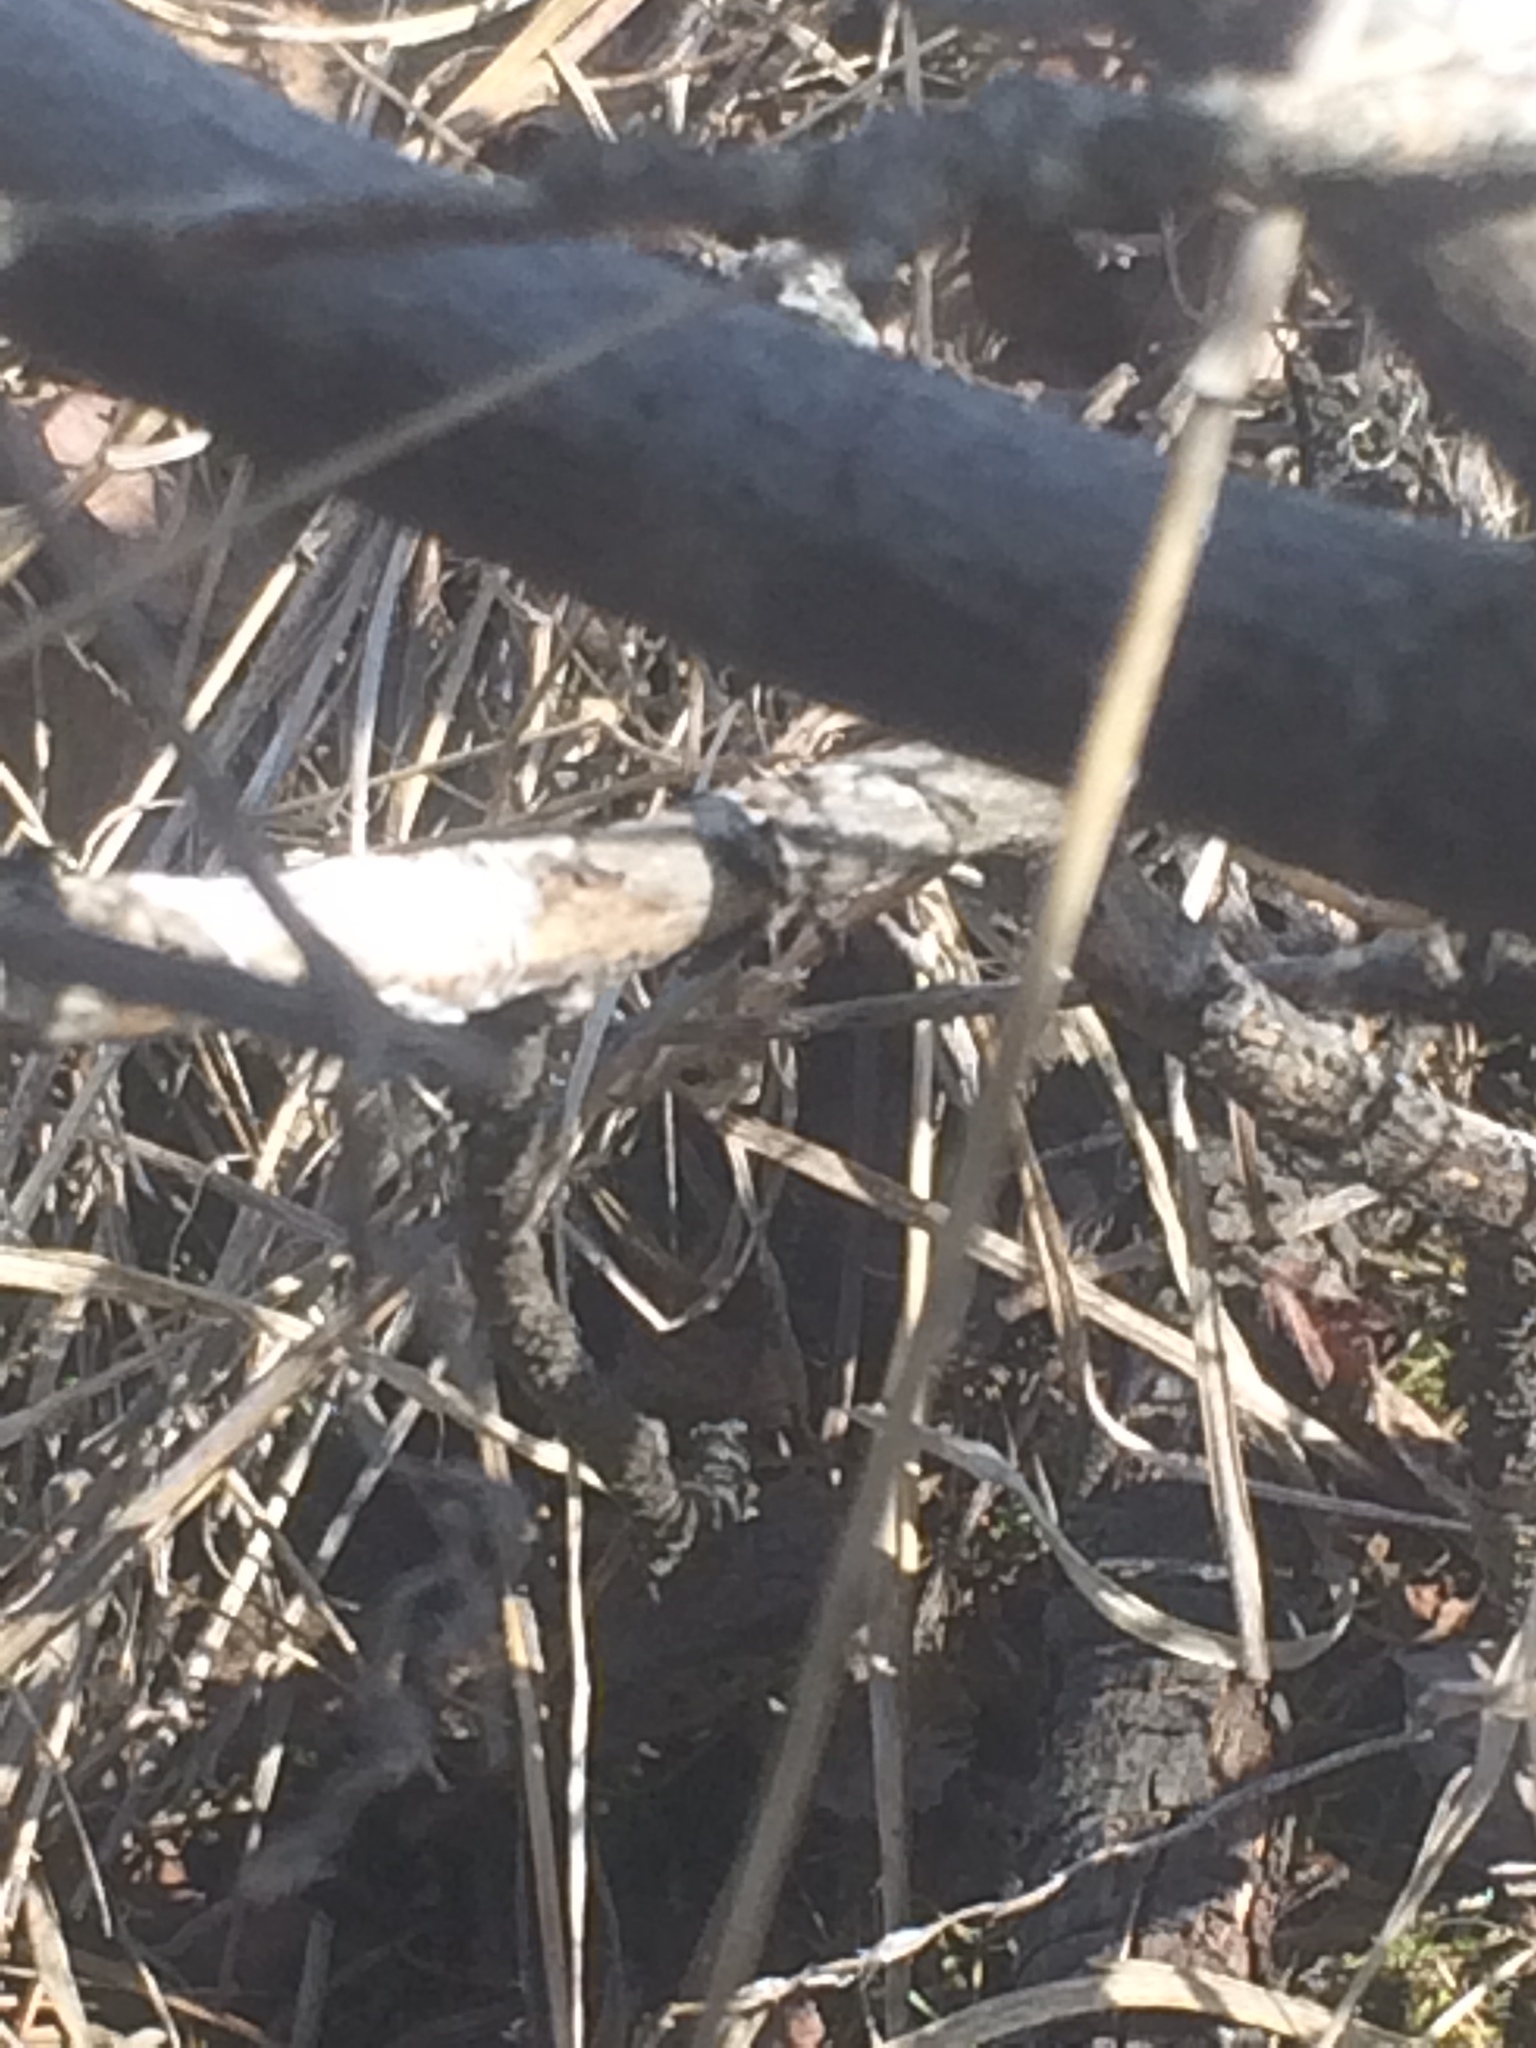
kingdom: Animalia
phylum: Chordata
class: Squamata
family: Anguidae
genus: Elgaria
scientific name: Elgaria coerulea
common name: Northern alligator lizard
